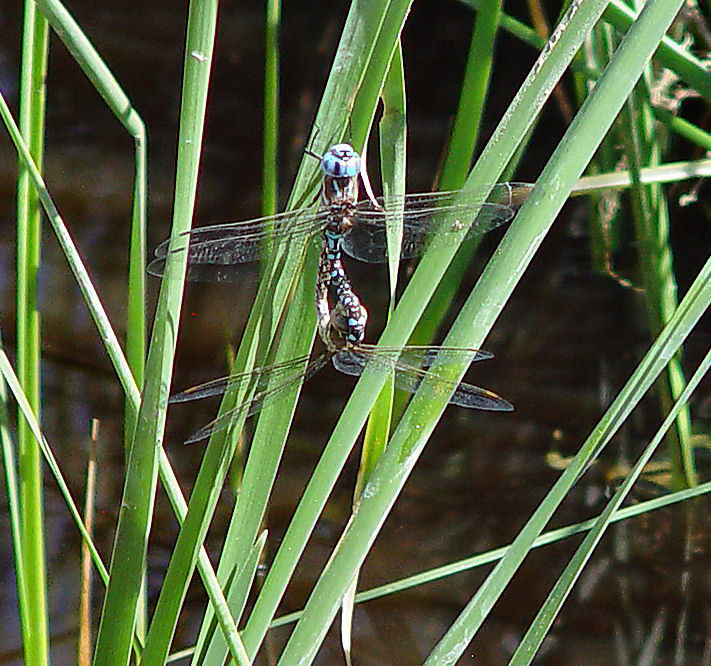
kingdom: Animalia
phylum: Arthropoda
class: Insecta
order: Odonata
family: Aeshnidae
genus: Rhionaeschna
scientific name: Rhionaeschna multicolor
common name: Blue-eyed darner
